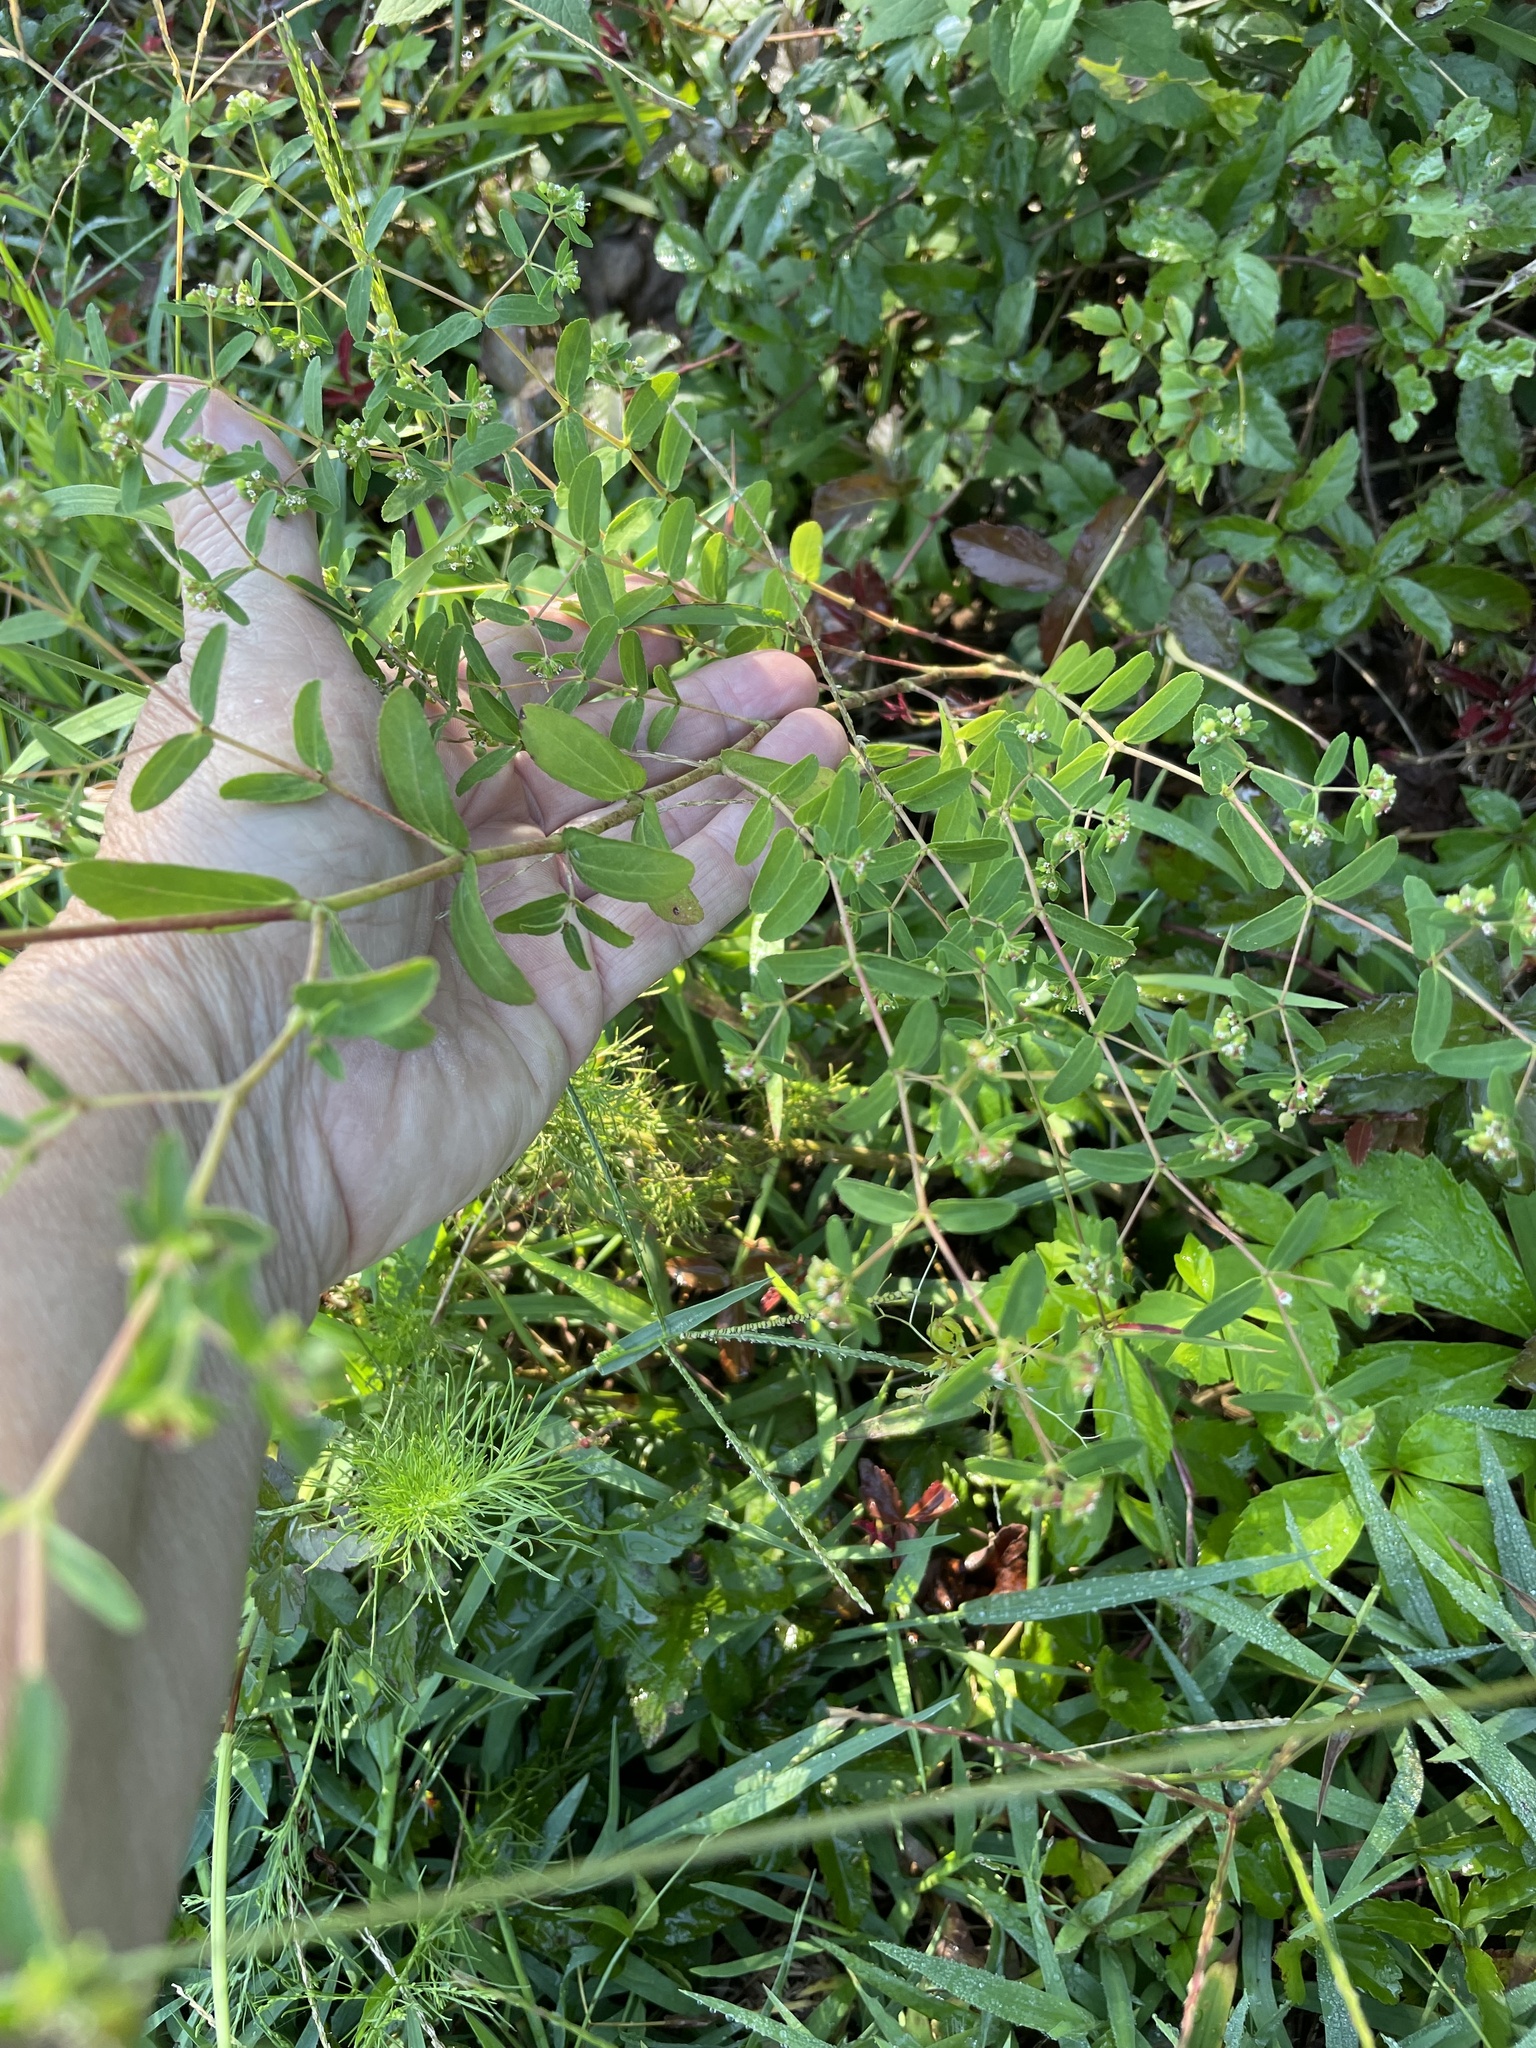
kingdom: Plantae
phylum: Tracheophyta
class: Magnoliopsida
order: Malpighiales
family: Euphorbiaceae
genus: Euphorbia
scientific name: Euphorbia nutans
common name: Eyebane
